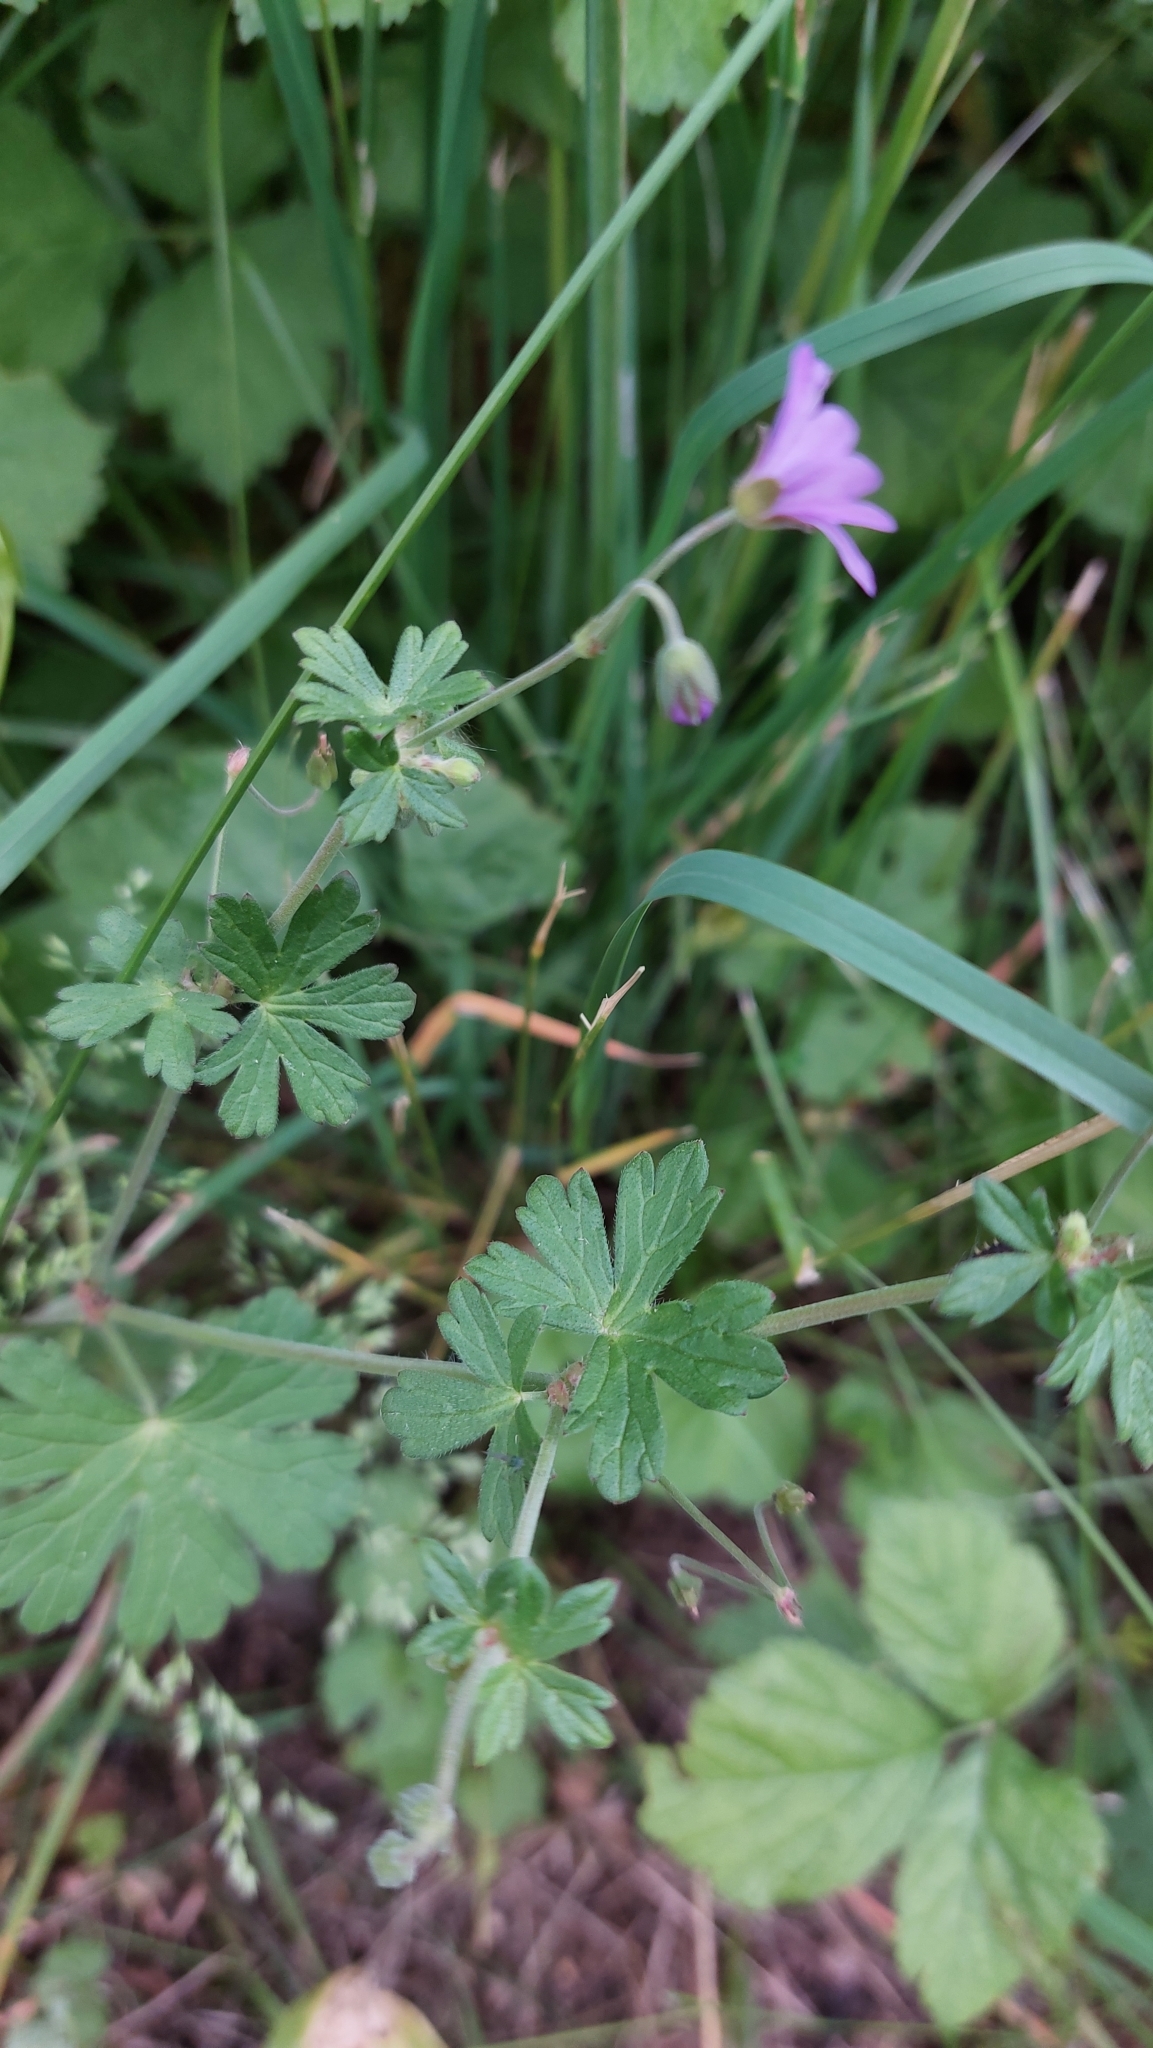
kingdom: Plantae
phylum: Tracheophyta
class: Magnoliopsida
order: Geraniales
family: Geraniaceae
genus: Geranium
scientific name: Geranium pyrenaicum
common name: Hedgerow crane's-bill
